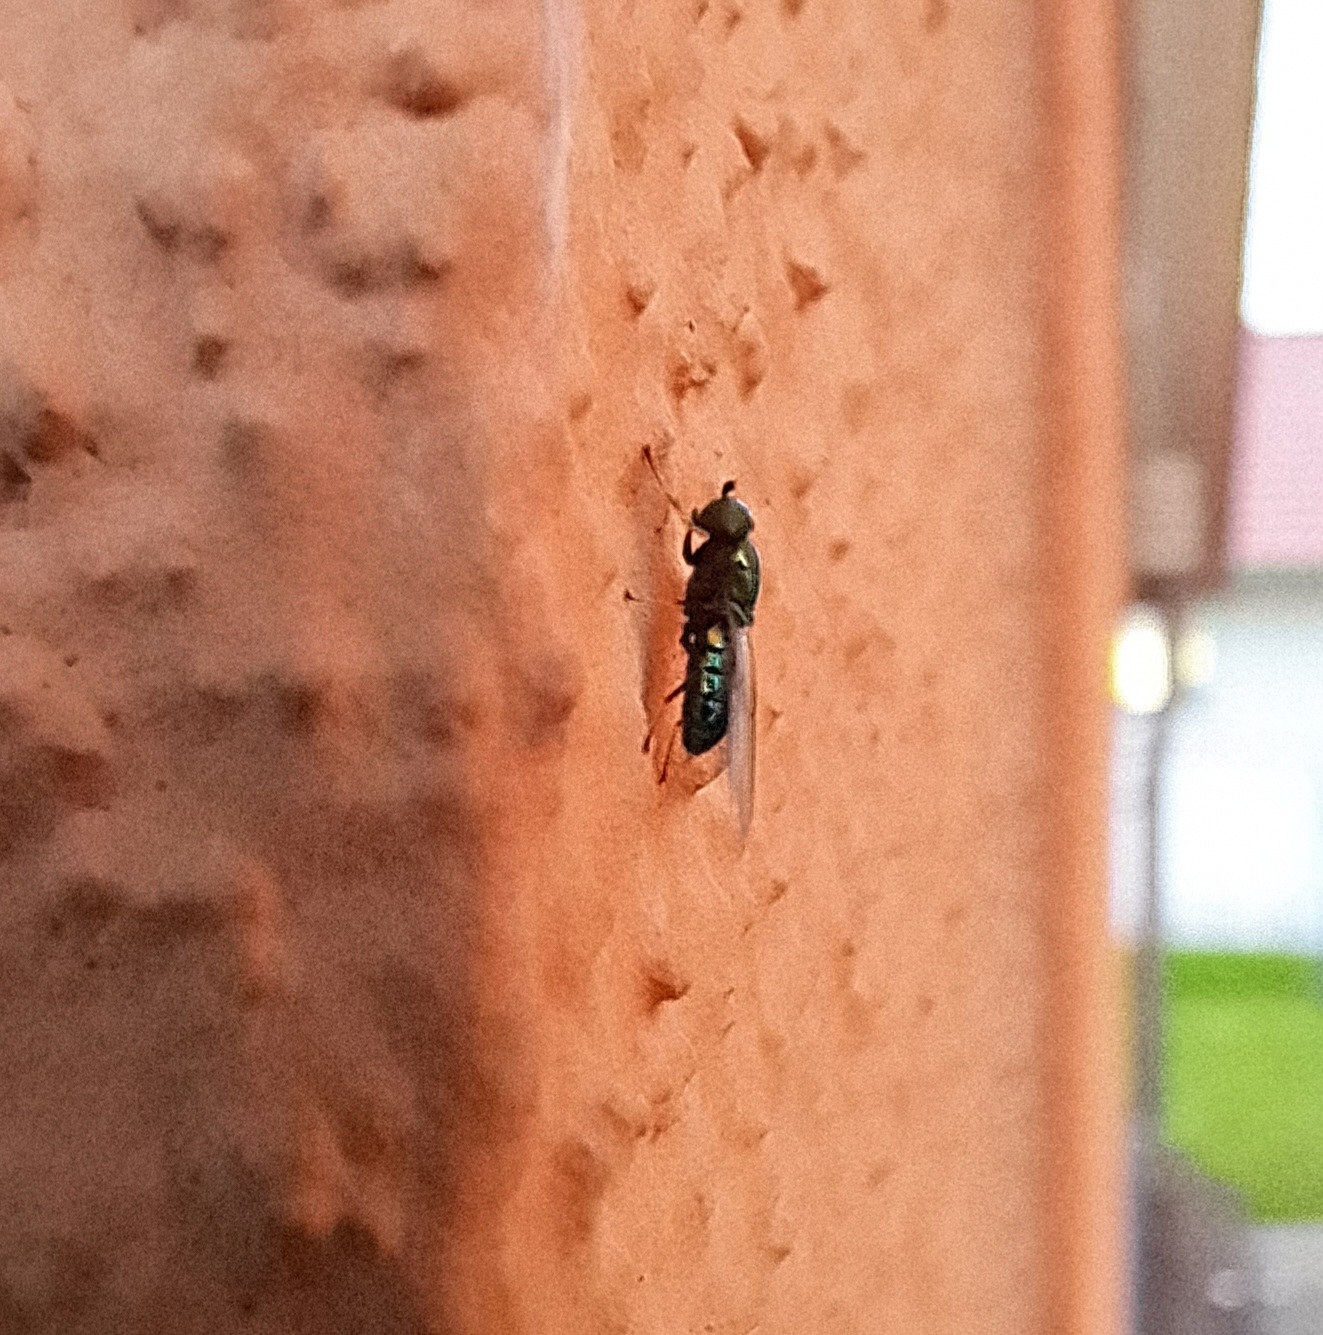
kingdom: Animalia
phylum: Arthropoda
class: Insecta
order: Diptera
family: Stratiomyidae
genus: Microchrysa
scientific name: Microchrysa polita
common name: Black-horned gem
